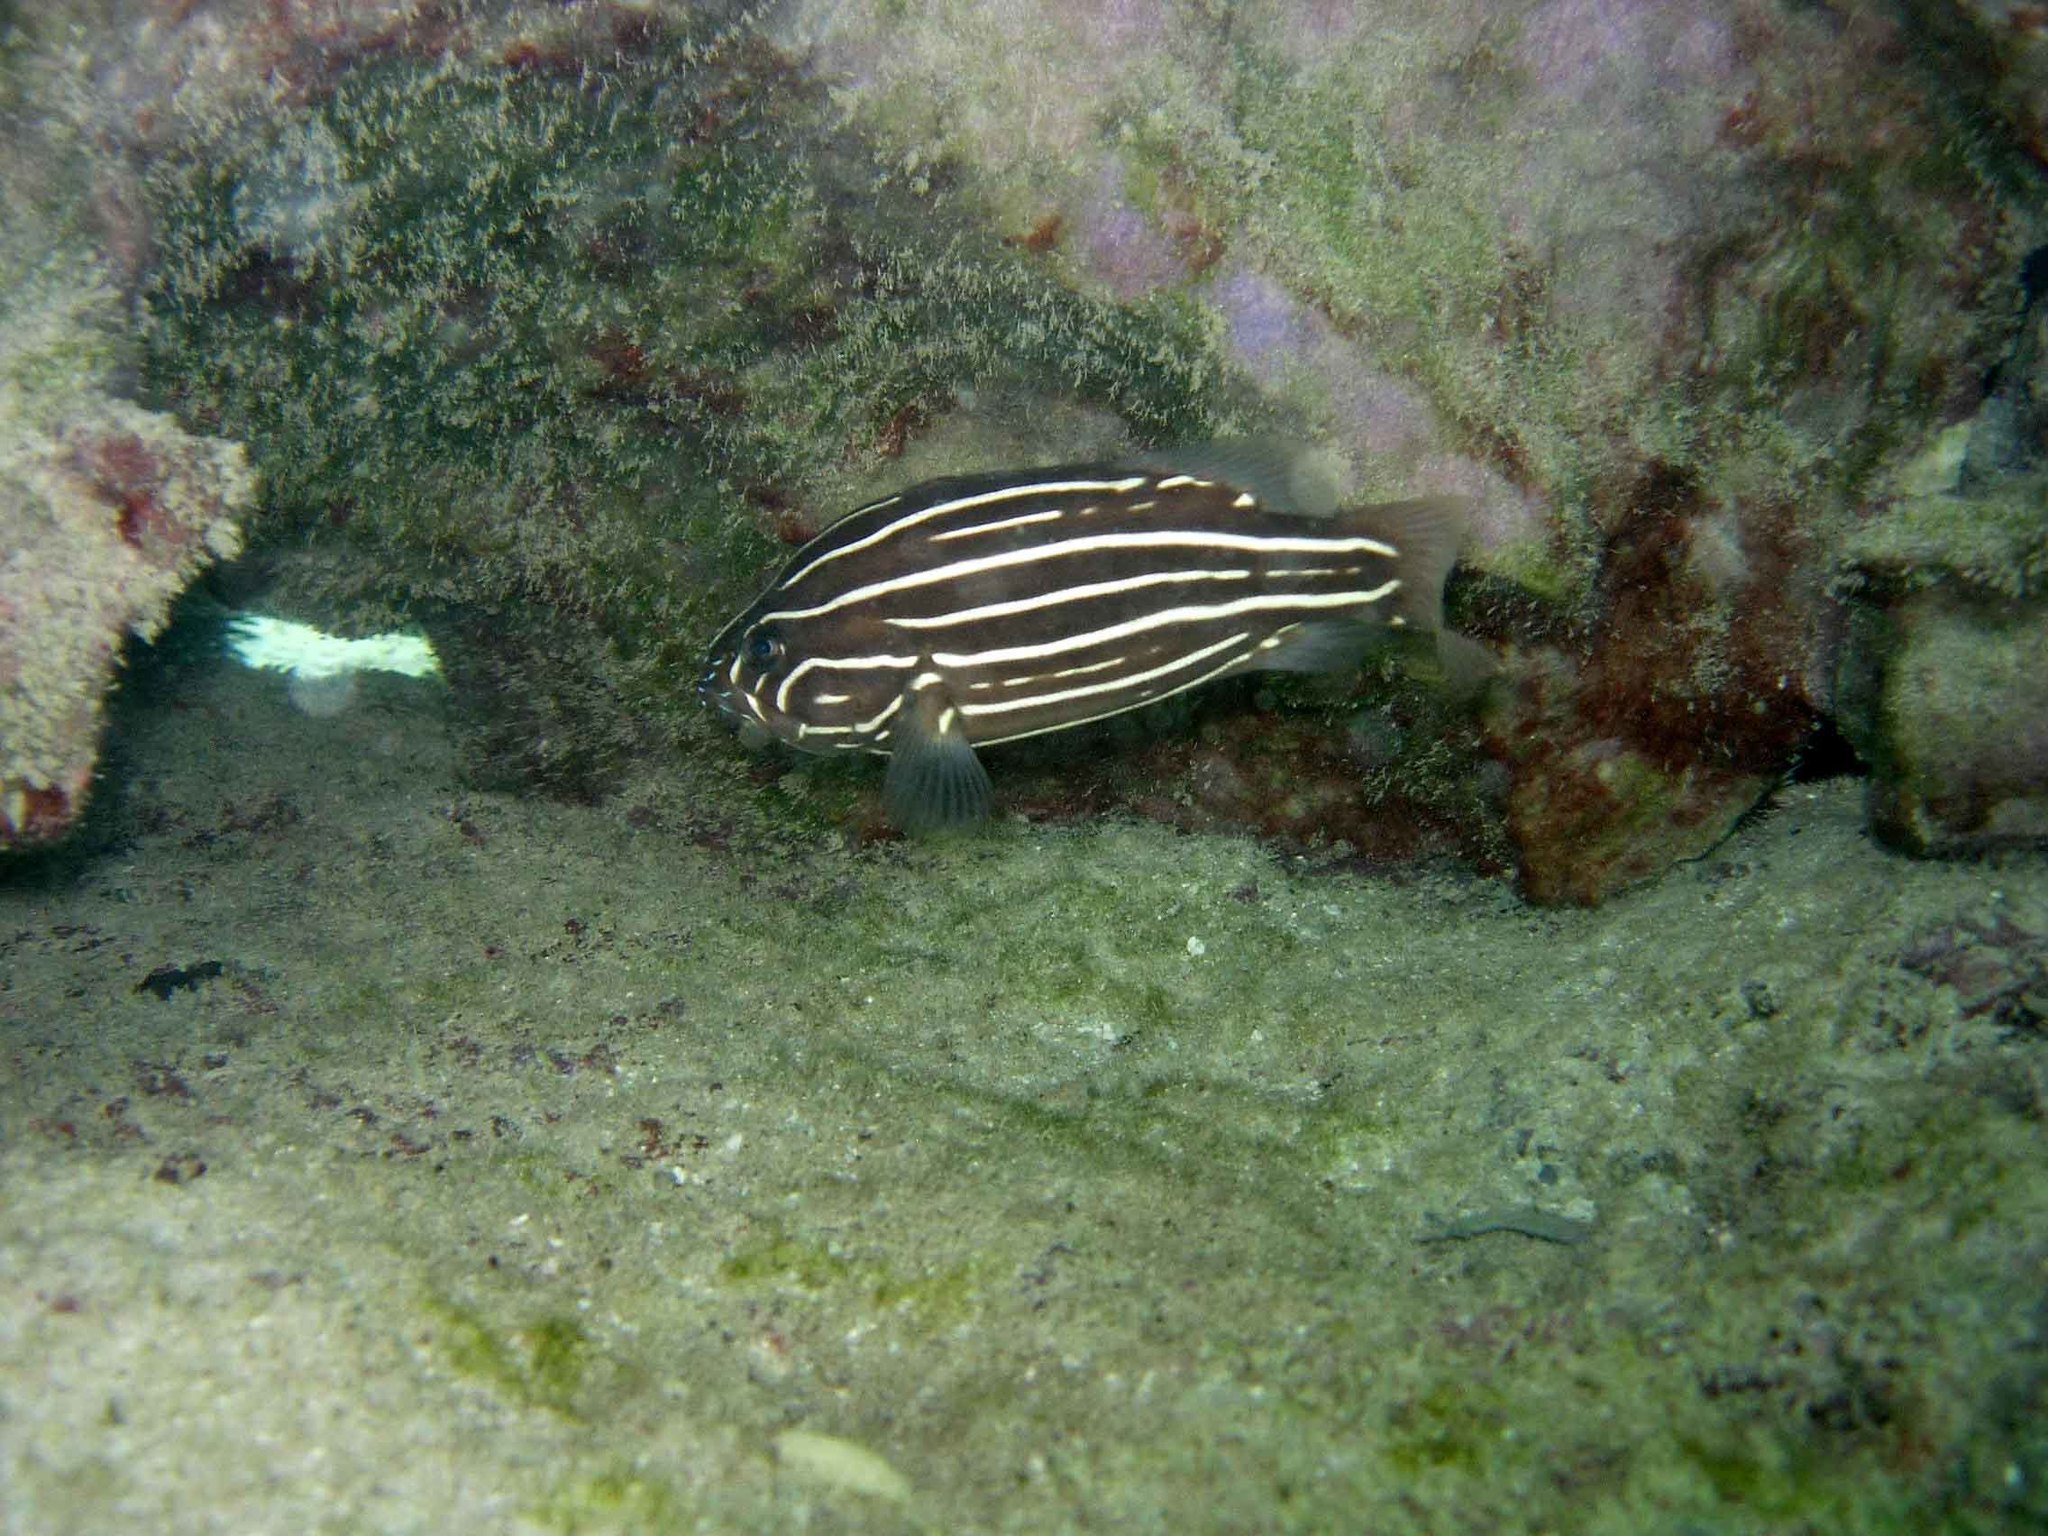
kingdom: Animalia
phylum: Chordata
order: Perciformes
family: Serranidae
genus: Grammistes
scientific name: Grammistes sexlineatus
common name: Sixline soapfish
